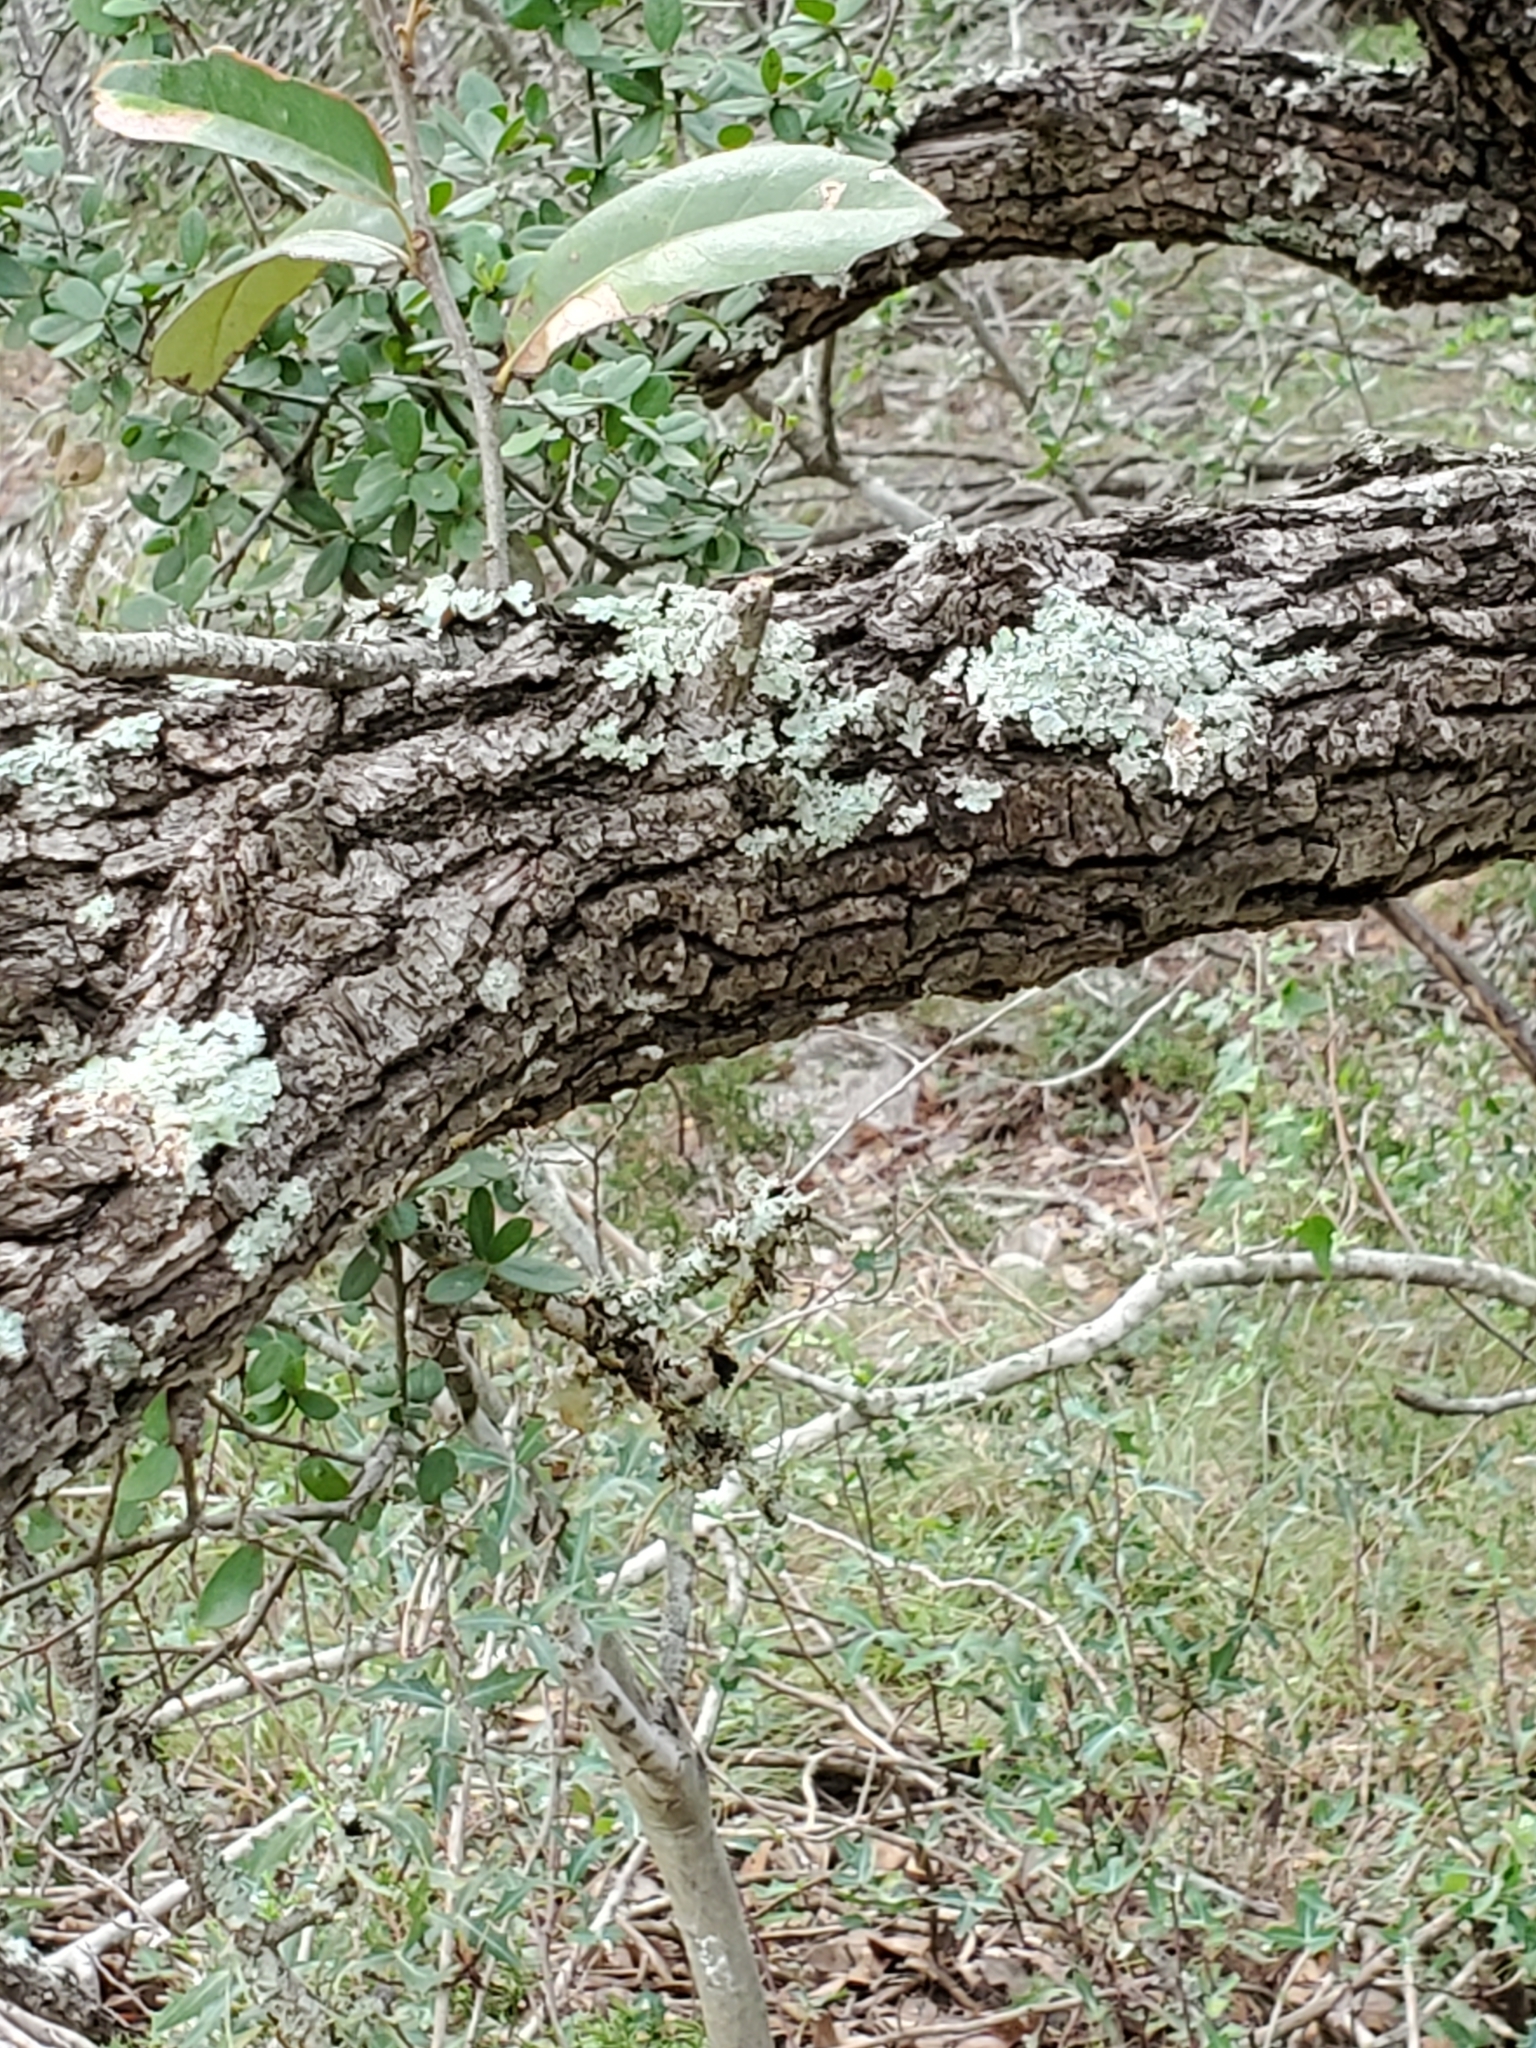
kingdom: Plantae
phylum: Tracheophyta
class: Magnoliopsida
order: Fagales
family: Fagaceae
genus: Quercus
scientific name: Quercus fusiformis
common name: Texas live oak
